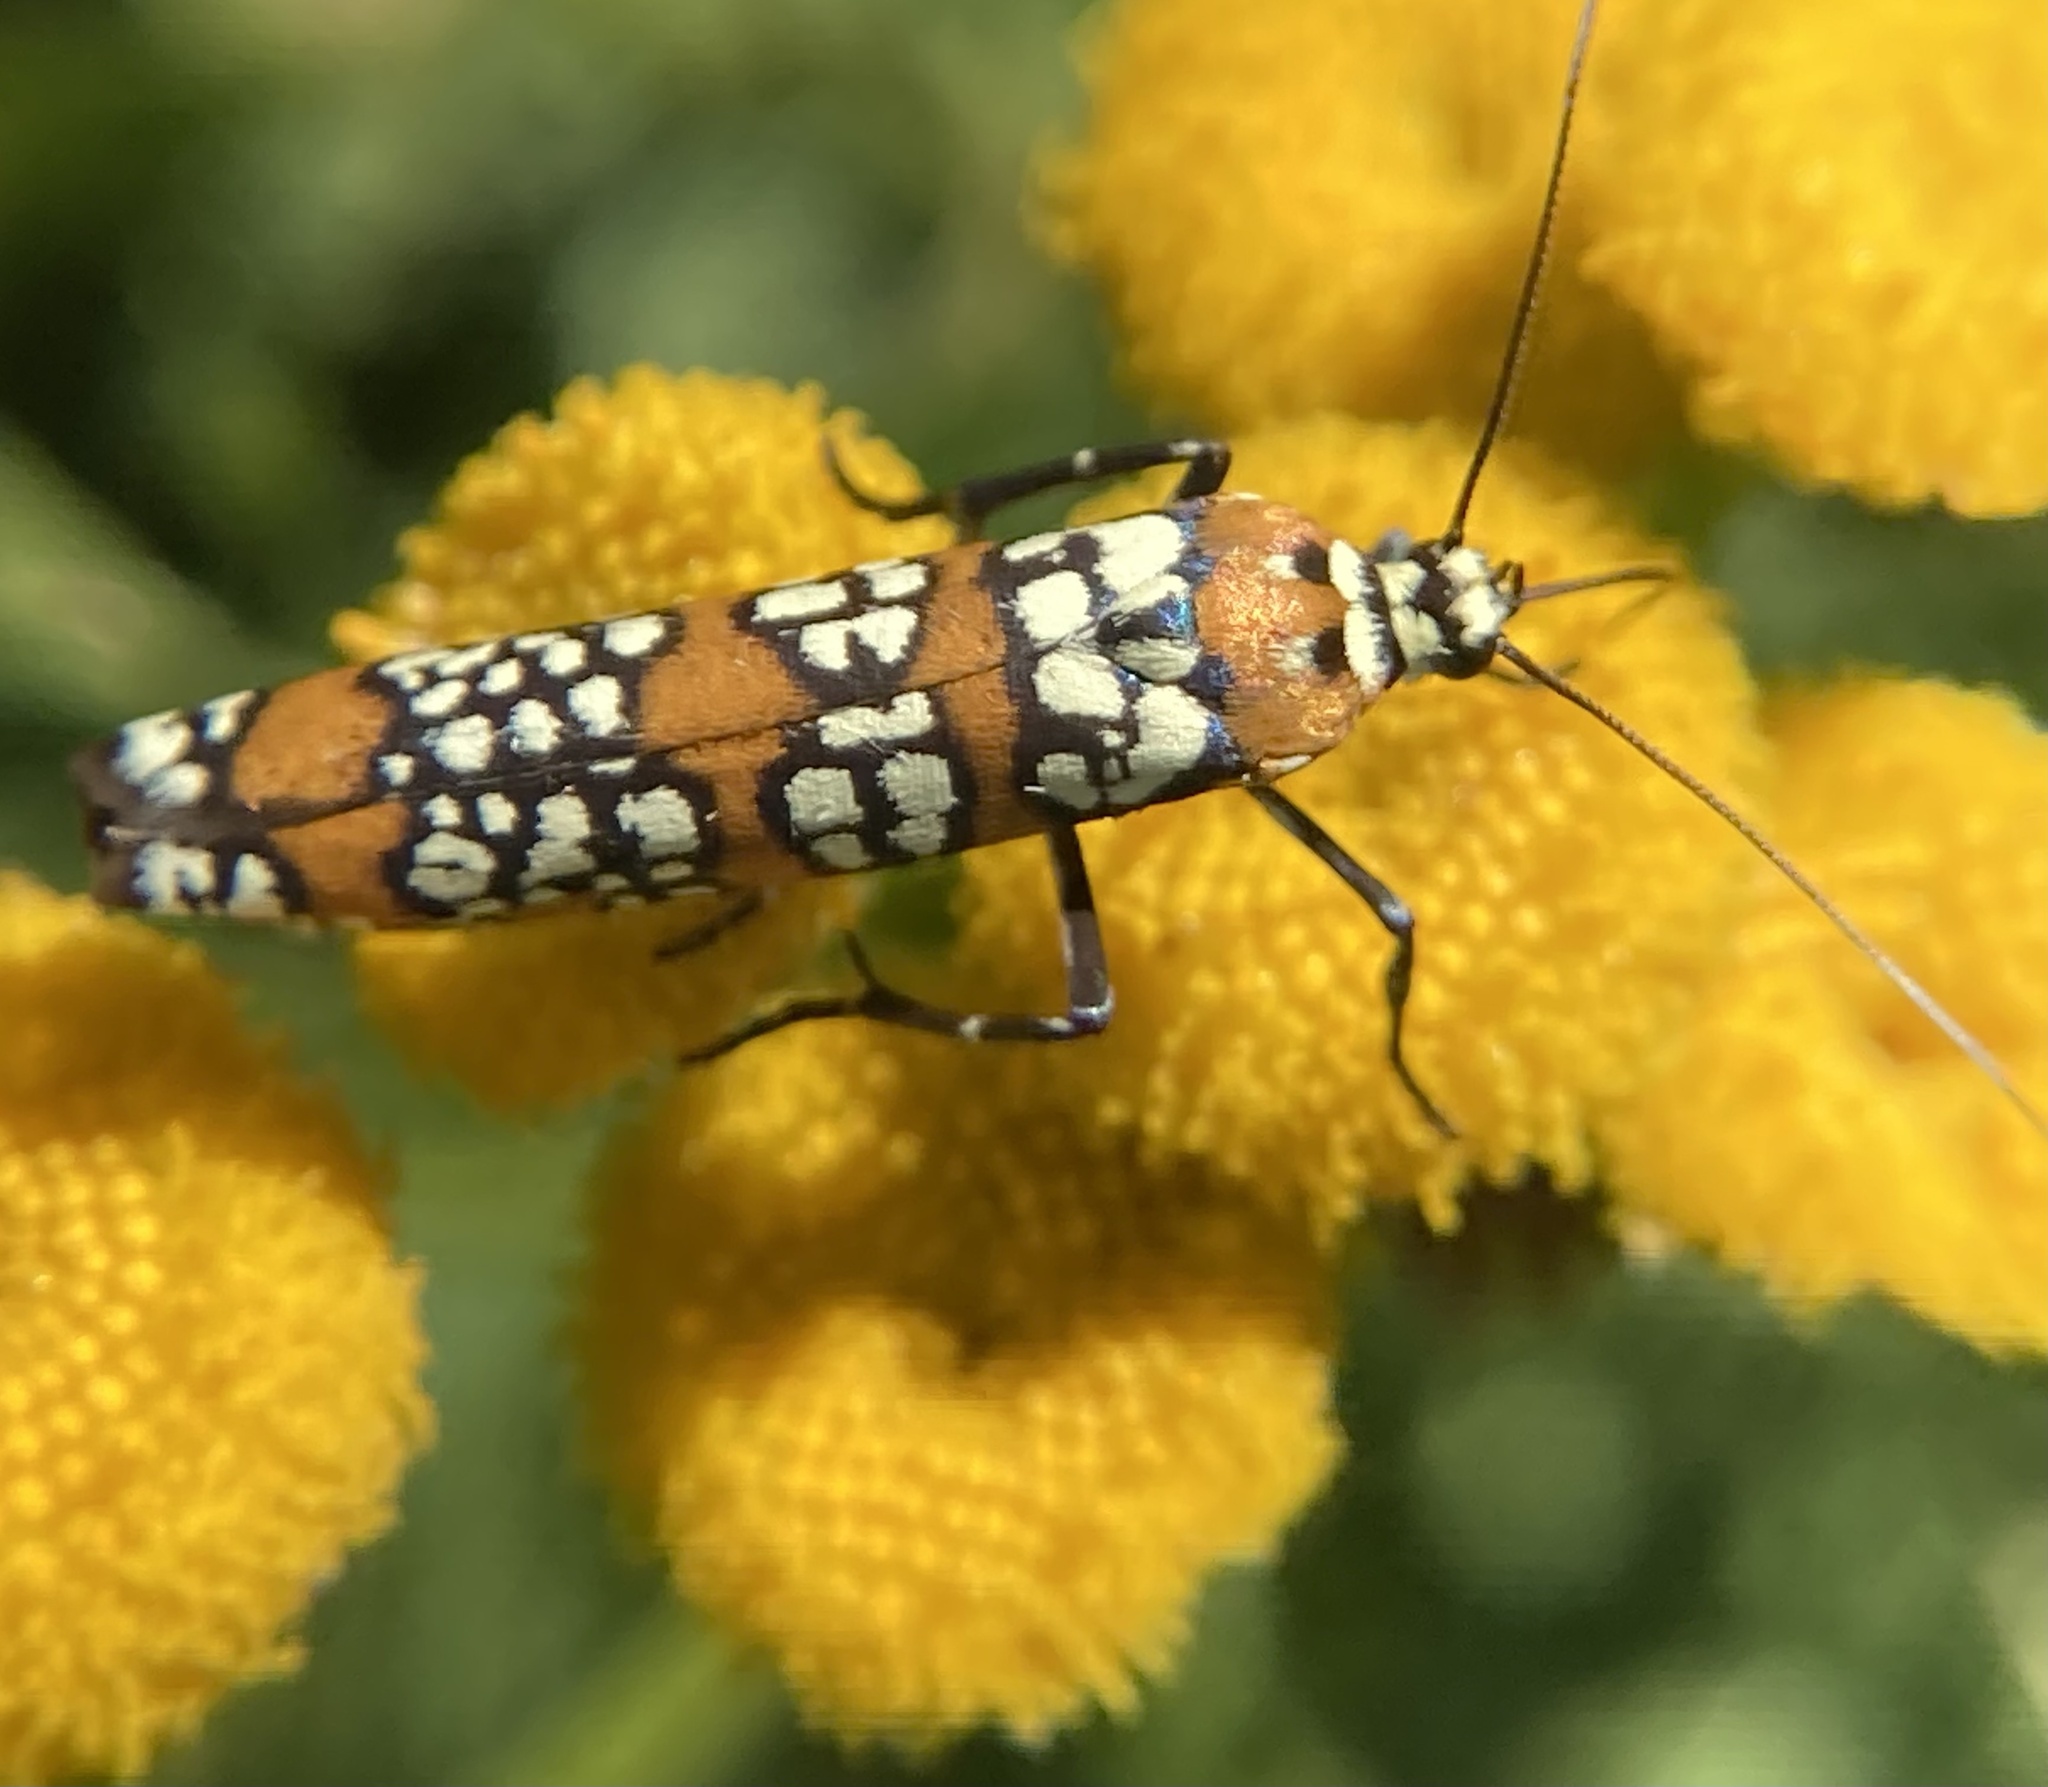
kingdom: Animalia
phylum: Arthropoda
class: Insecta
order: Lepidoptera
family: Attevidae
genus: Atteva
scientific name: Atteva punctella
